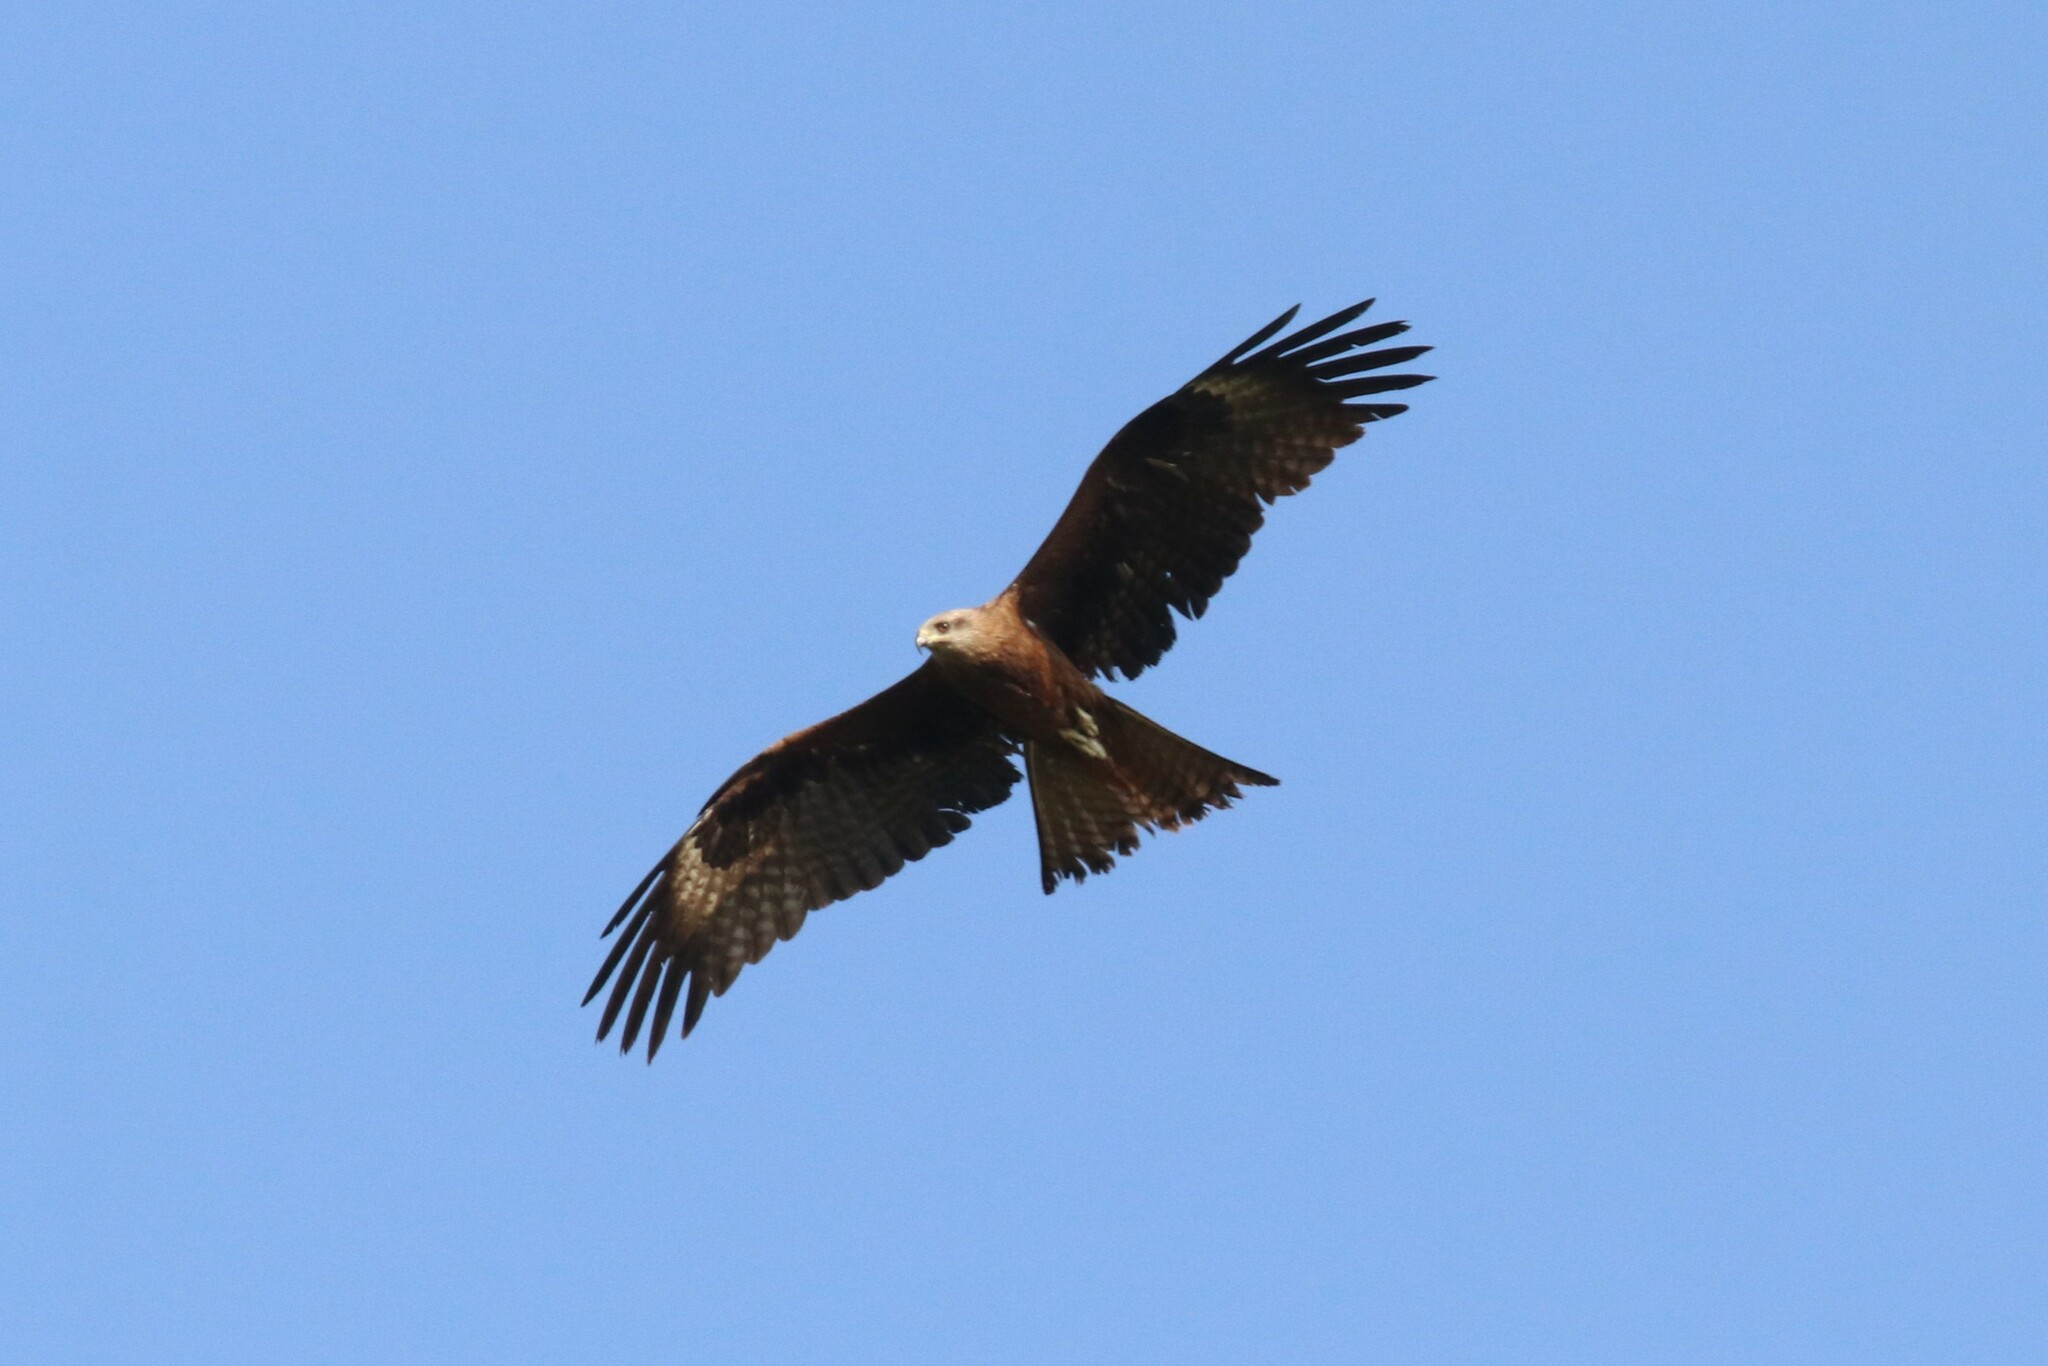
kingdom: Animalia
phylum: Chordata
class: Aves
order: Accipitriformes
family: Accipitridae
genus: Milvus
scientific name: Milvus migrans
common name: Black kite
